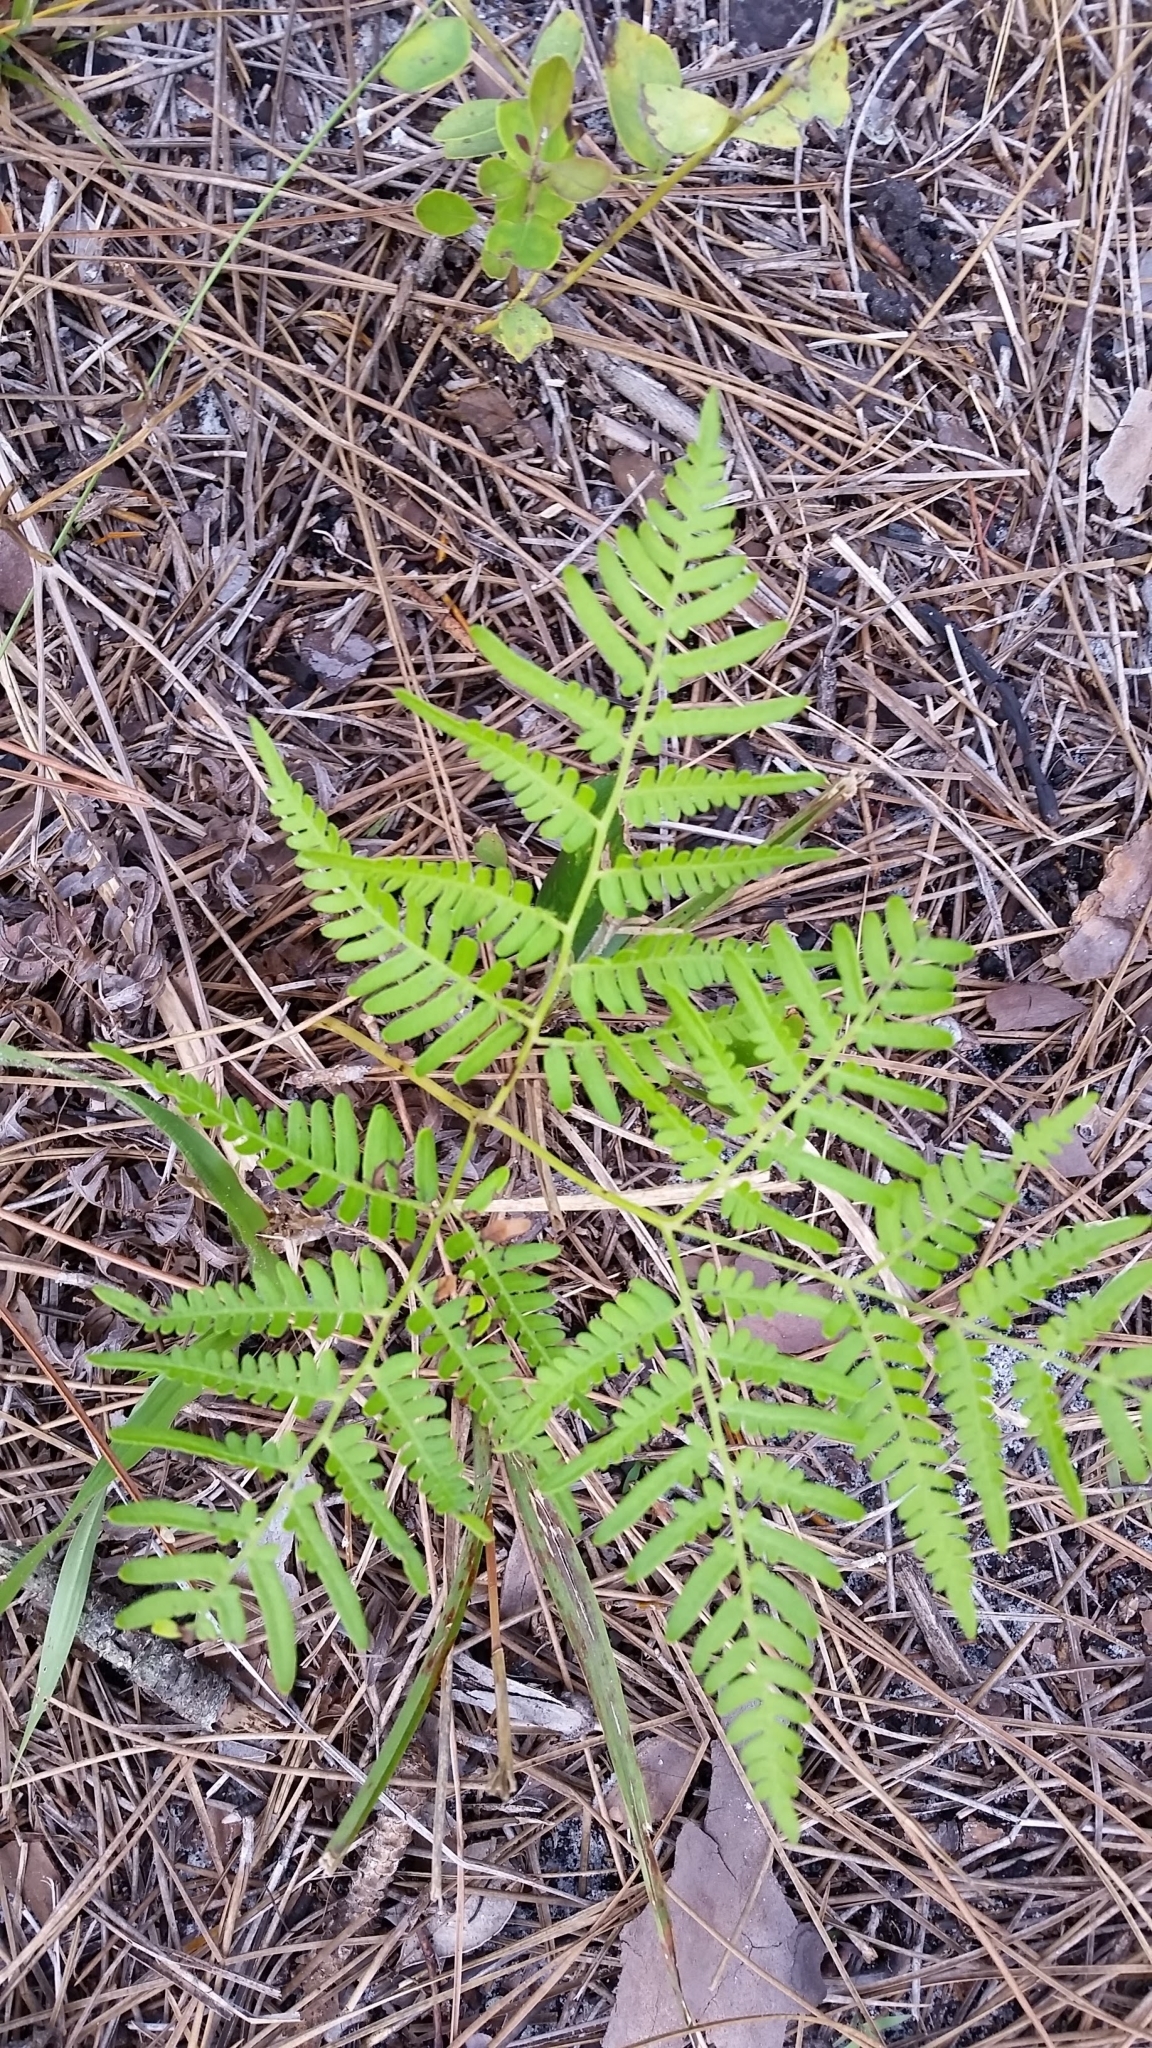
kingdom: Plantae
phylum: Tracheophyta
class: Polypodiopsida
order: Polypodiales
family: Dennstaedtiaceae
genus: Pteridium
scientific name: Pteridium aquilinum
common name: Bracken
